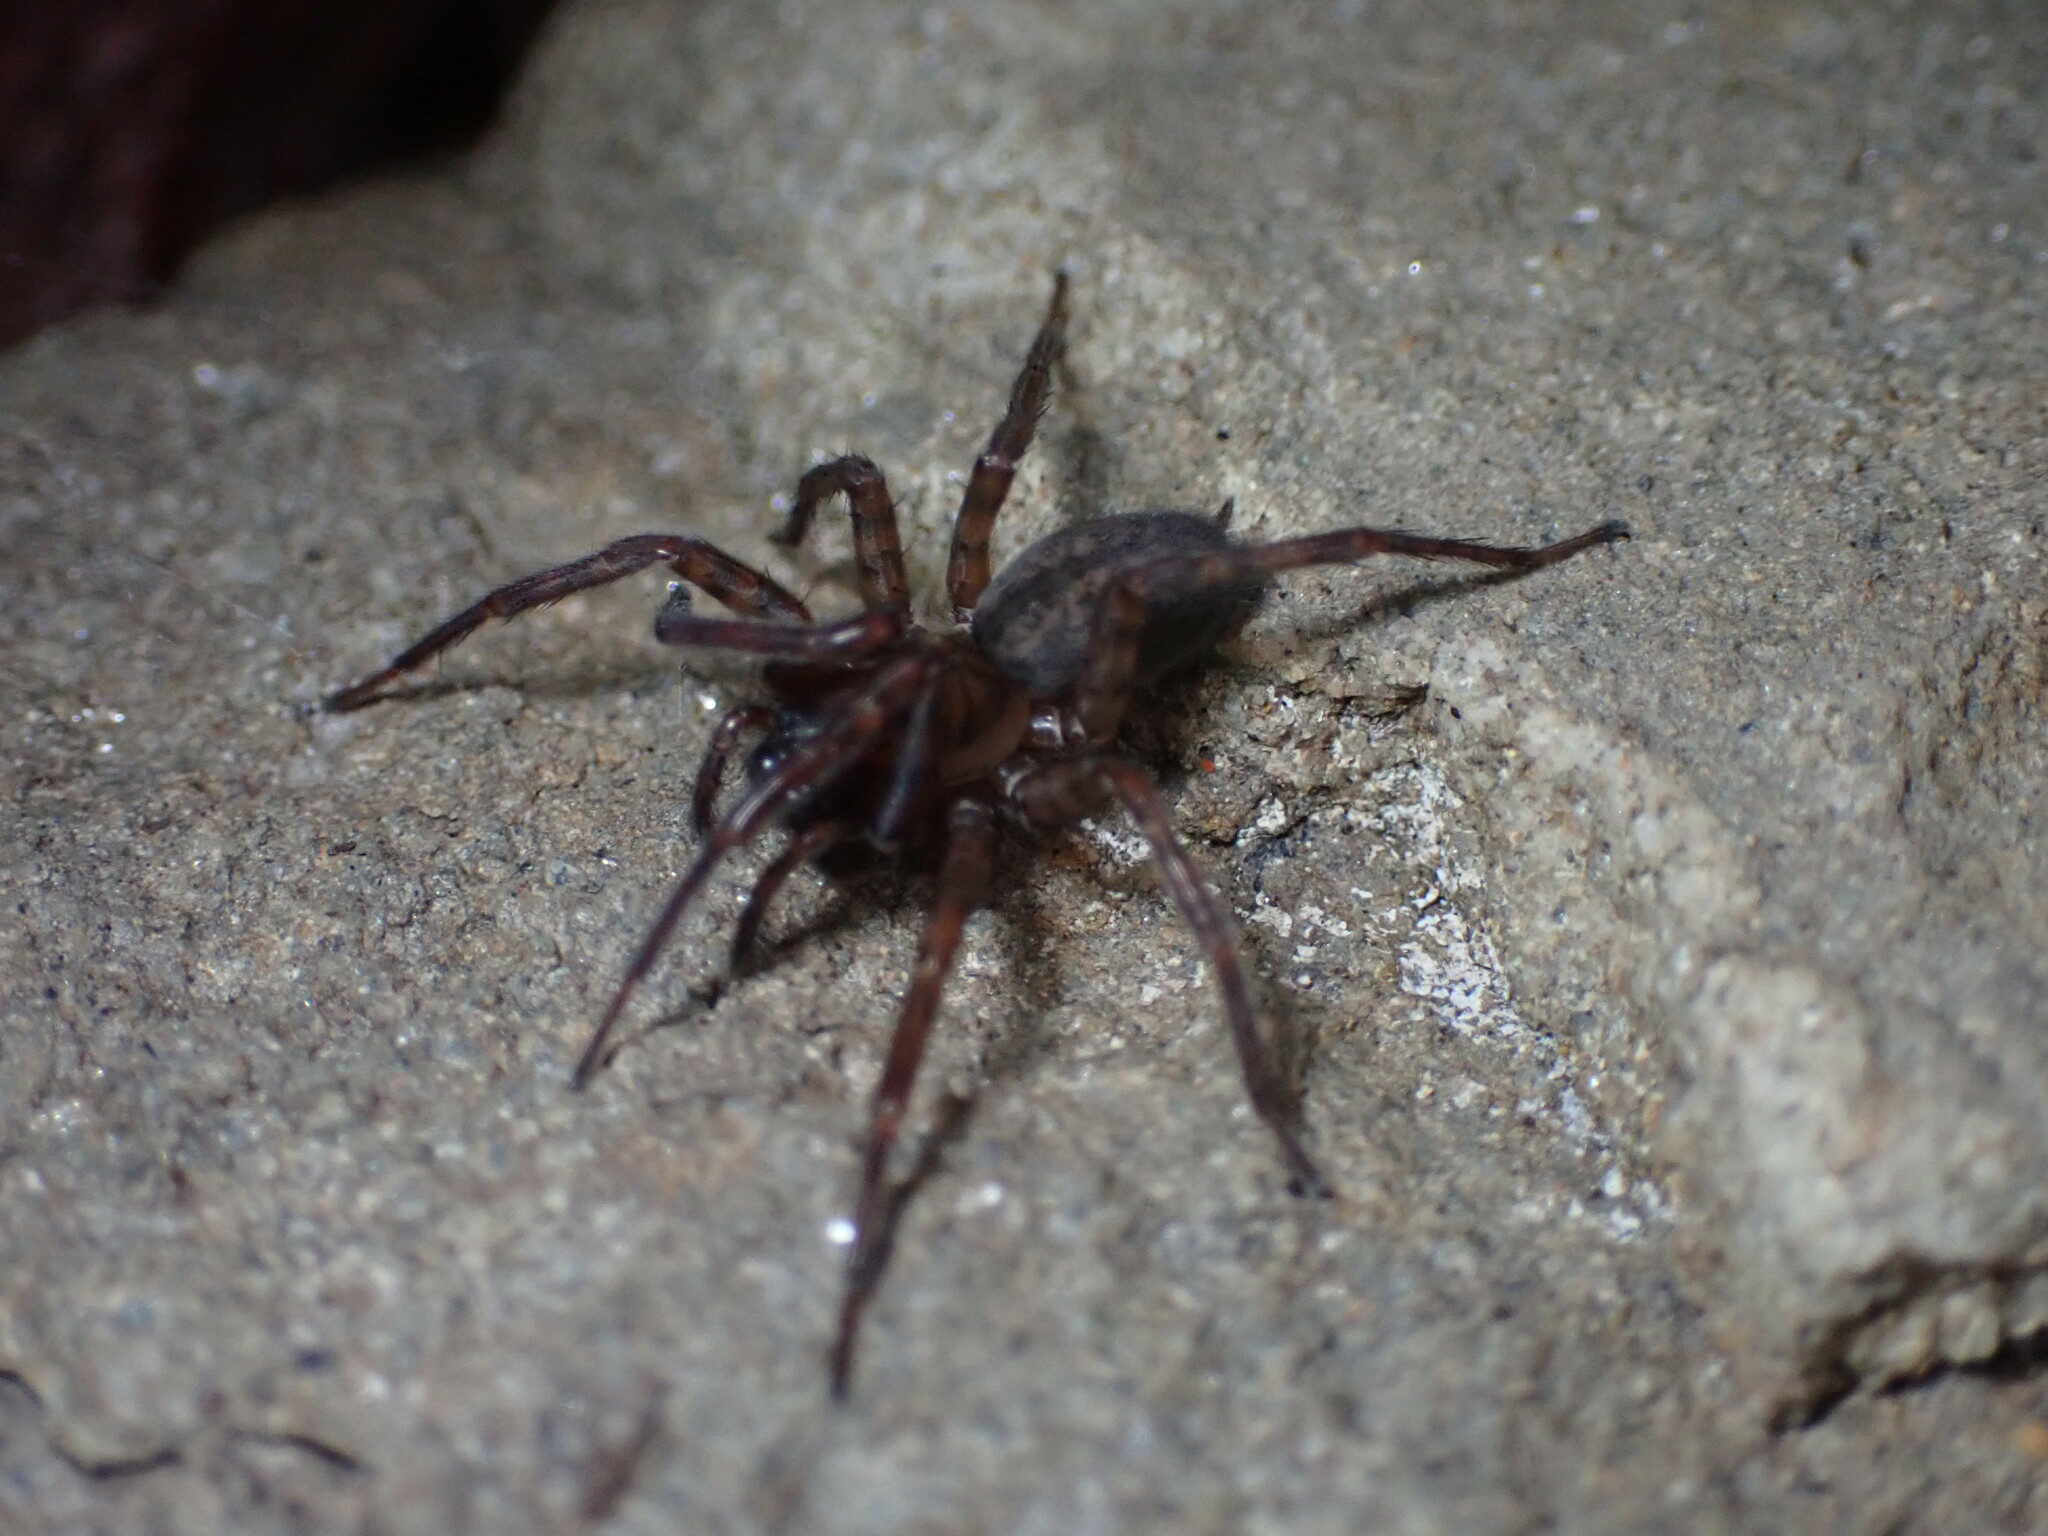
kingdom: Animalia
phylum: Arthropoda
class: Arachnida
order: Araneae
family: Agelenidae
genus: Coras
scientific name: Coras
